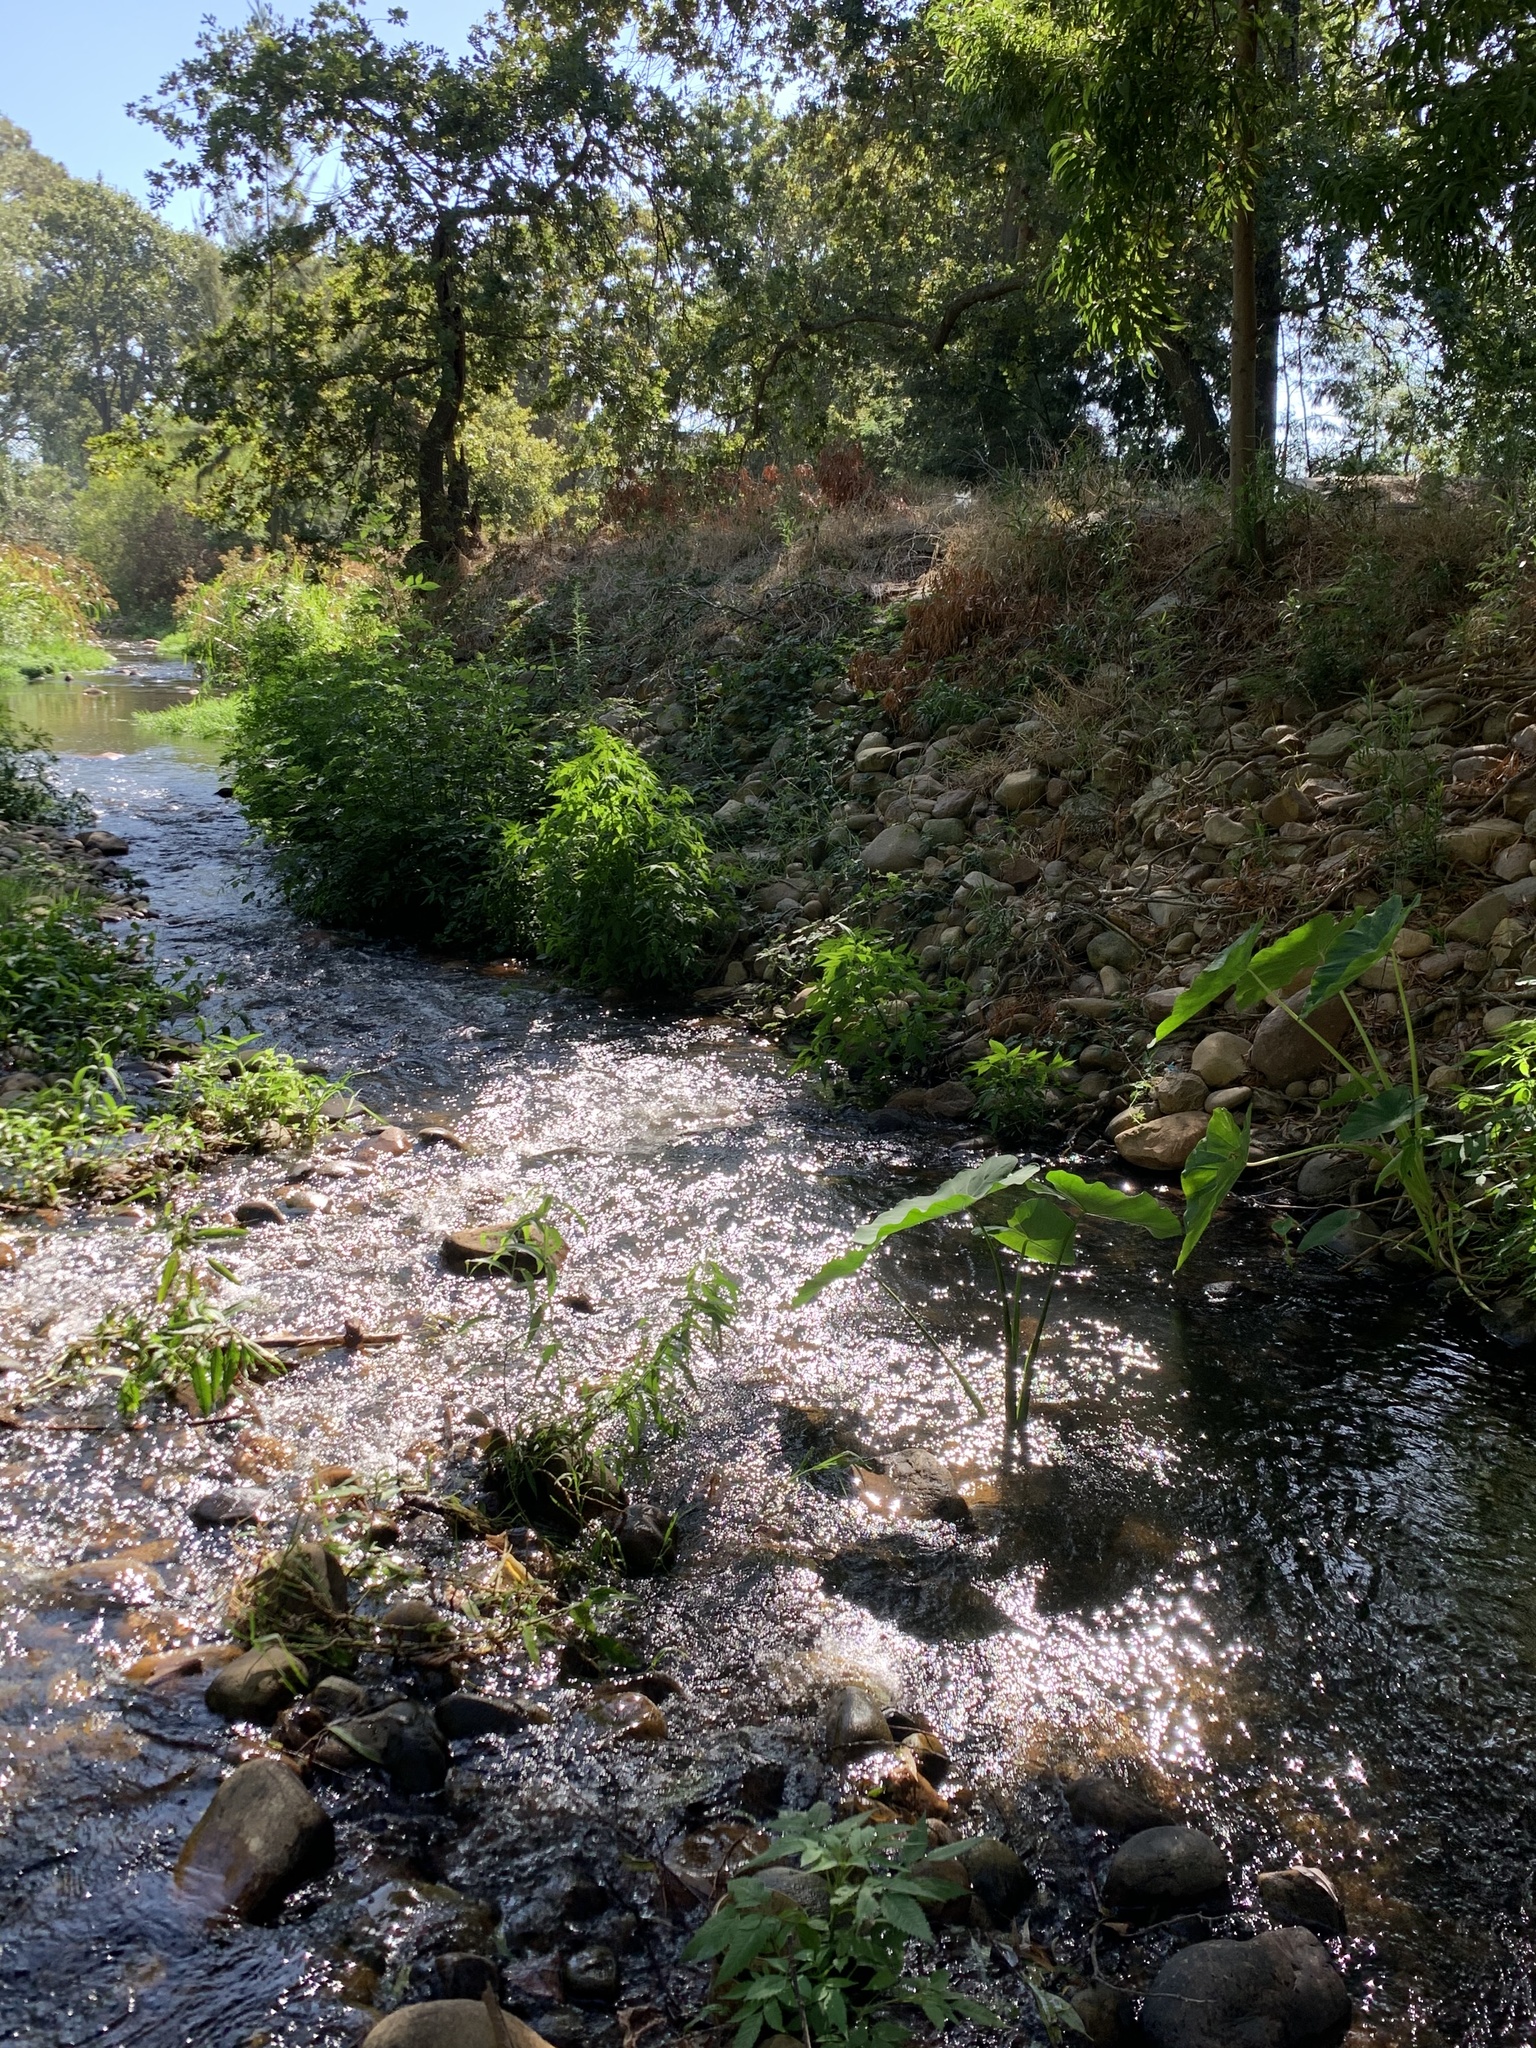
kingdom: Plantae
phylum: Tracheophyta
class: Liliopsida
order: Alismatales
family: Araceae
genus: Colocasia
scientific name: Colocasia esculenta
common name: Taro
